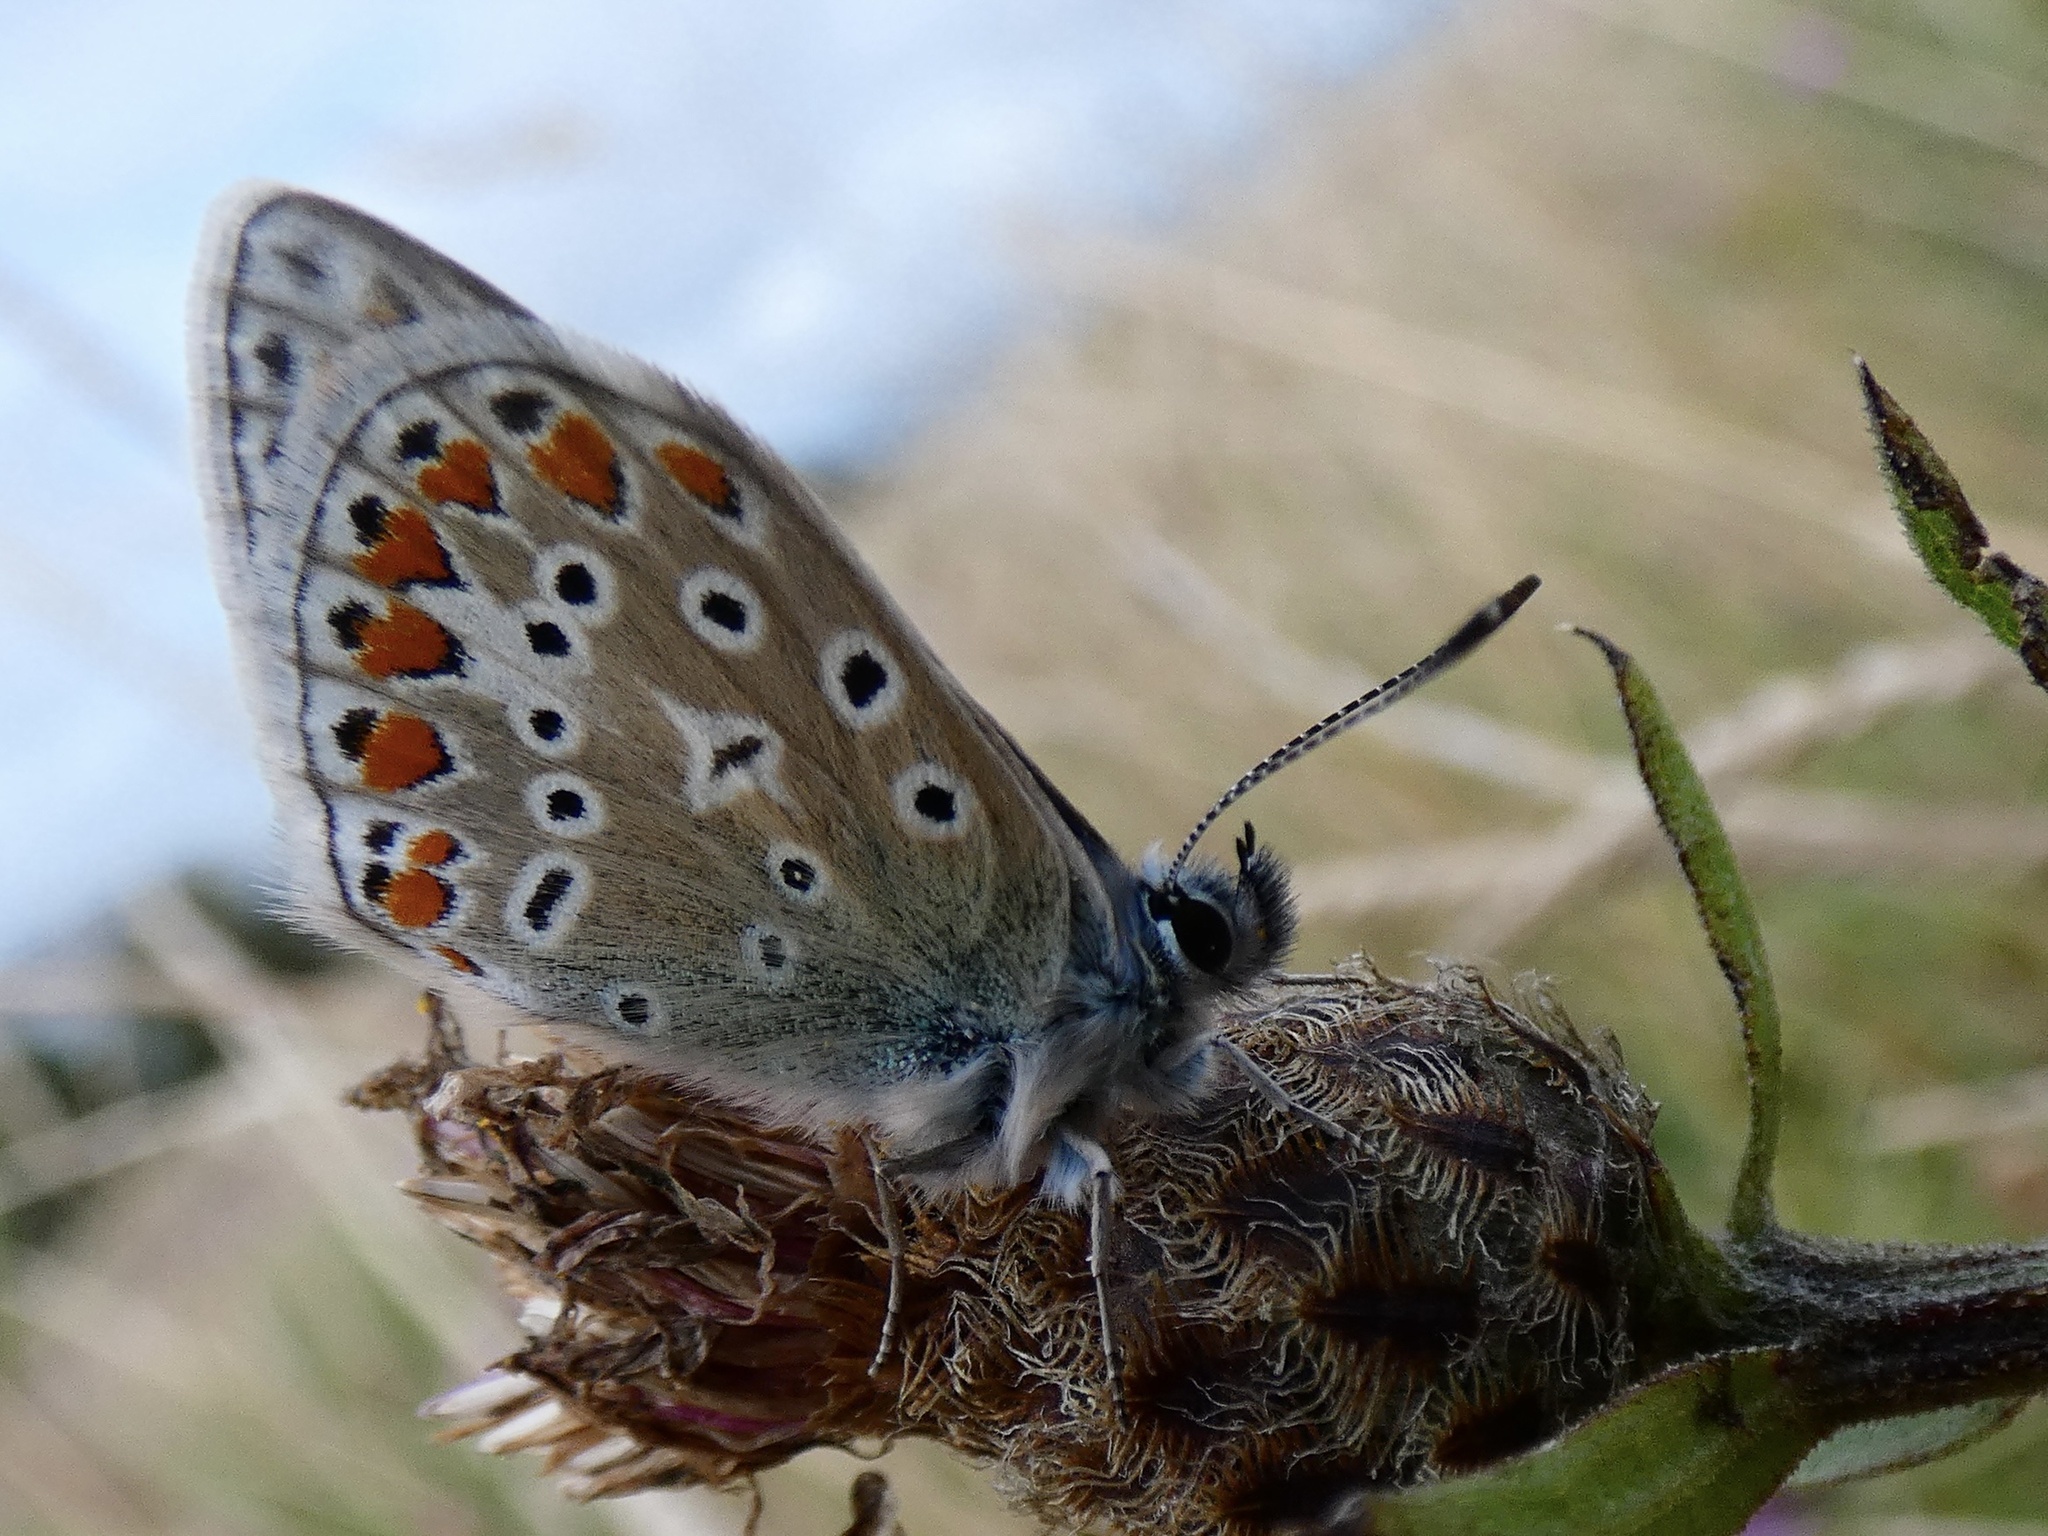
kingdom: Animalia
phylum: Arthropoda
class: Insecta
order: Lepidoptera
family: Lycaenidae
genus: Polyommatus
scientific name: Polyommatus icarus
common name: Common blue
